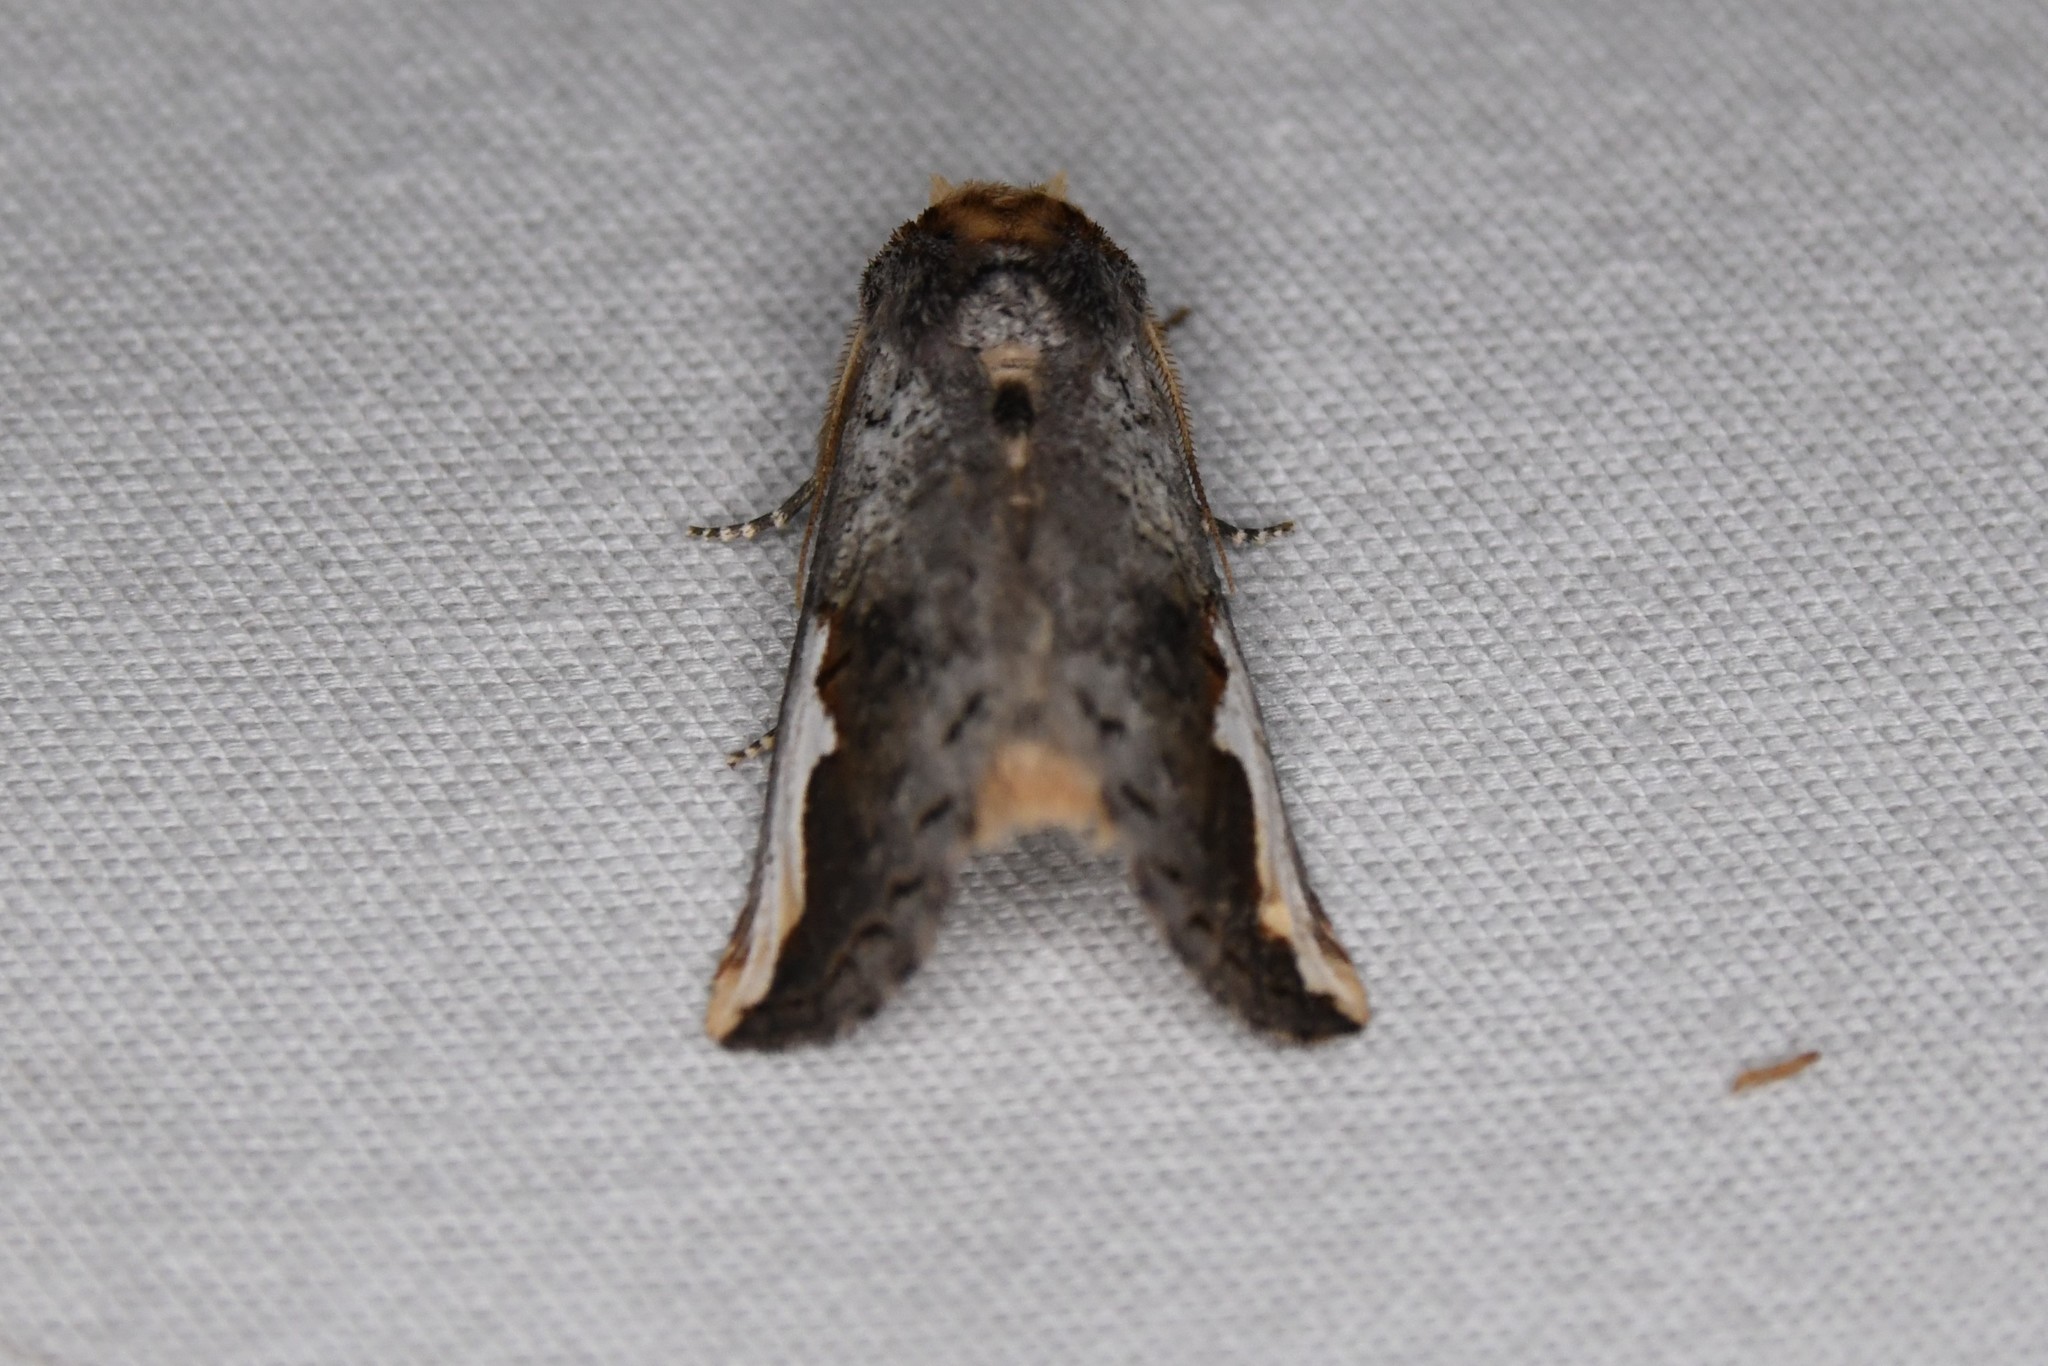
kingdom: Animalia
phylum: Arthropoda
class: Insecta
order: Lepidoptera
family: Notodontidae
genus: Symmerista
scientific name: Symmerista
